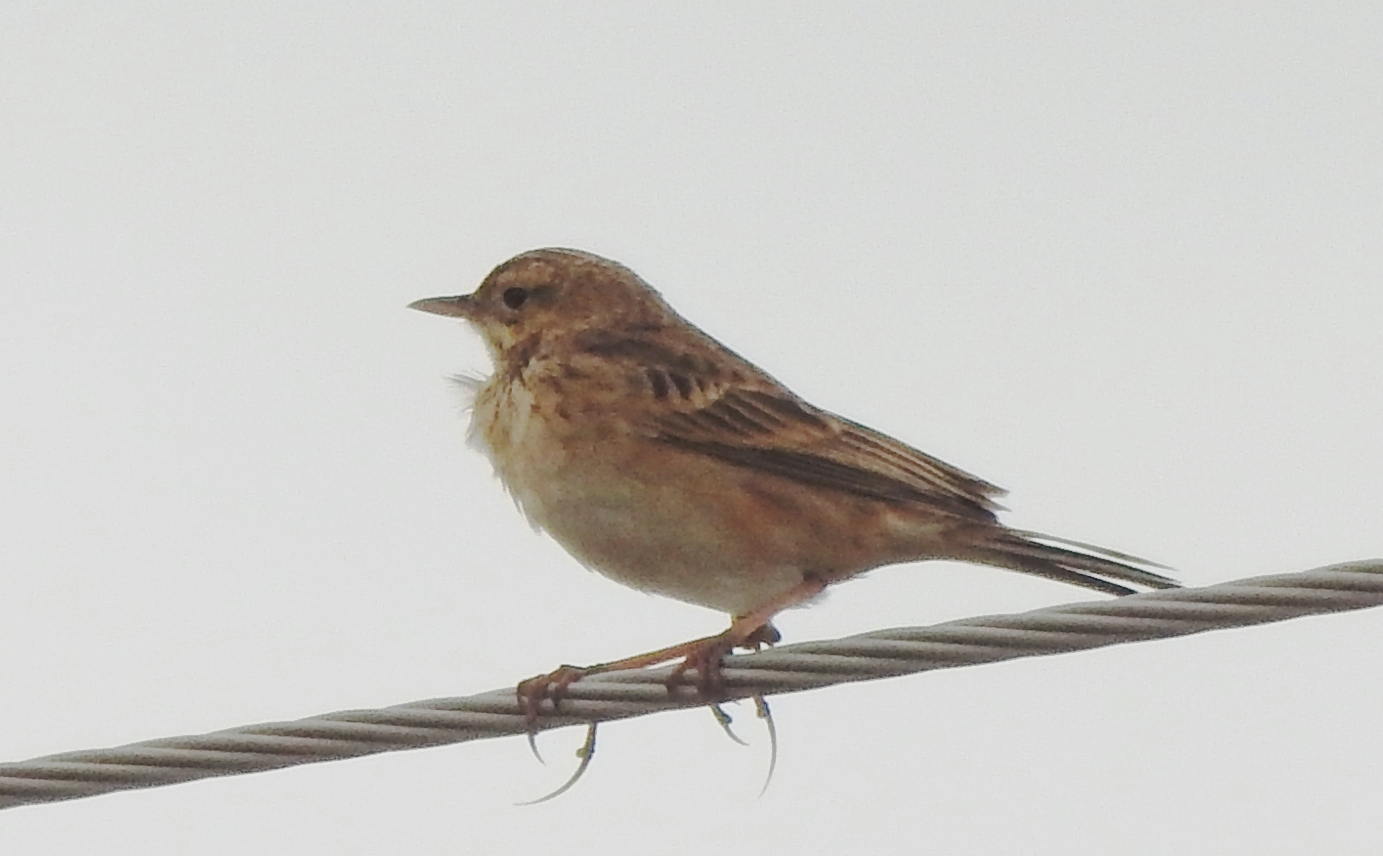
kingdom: Animalia
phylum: Chordata
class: Aves
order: Passeriformes
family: Motacillidae
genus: Anthus
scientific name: Anthus richardi
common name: Richard's pipit
